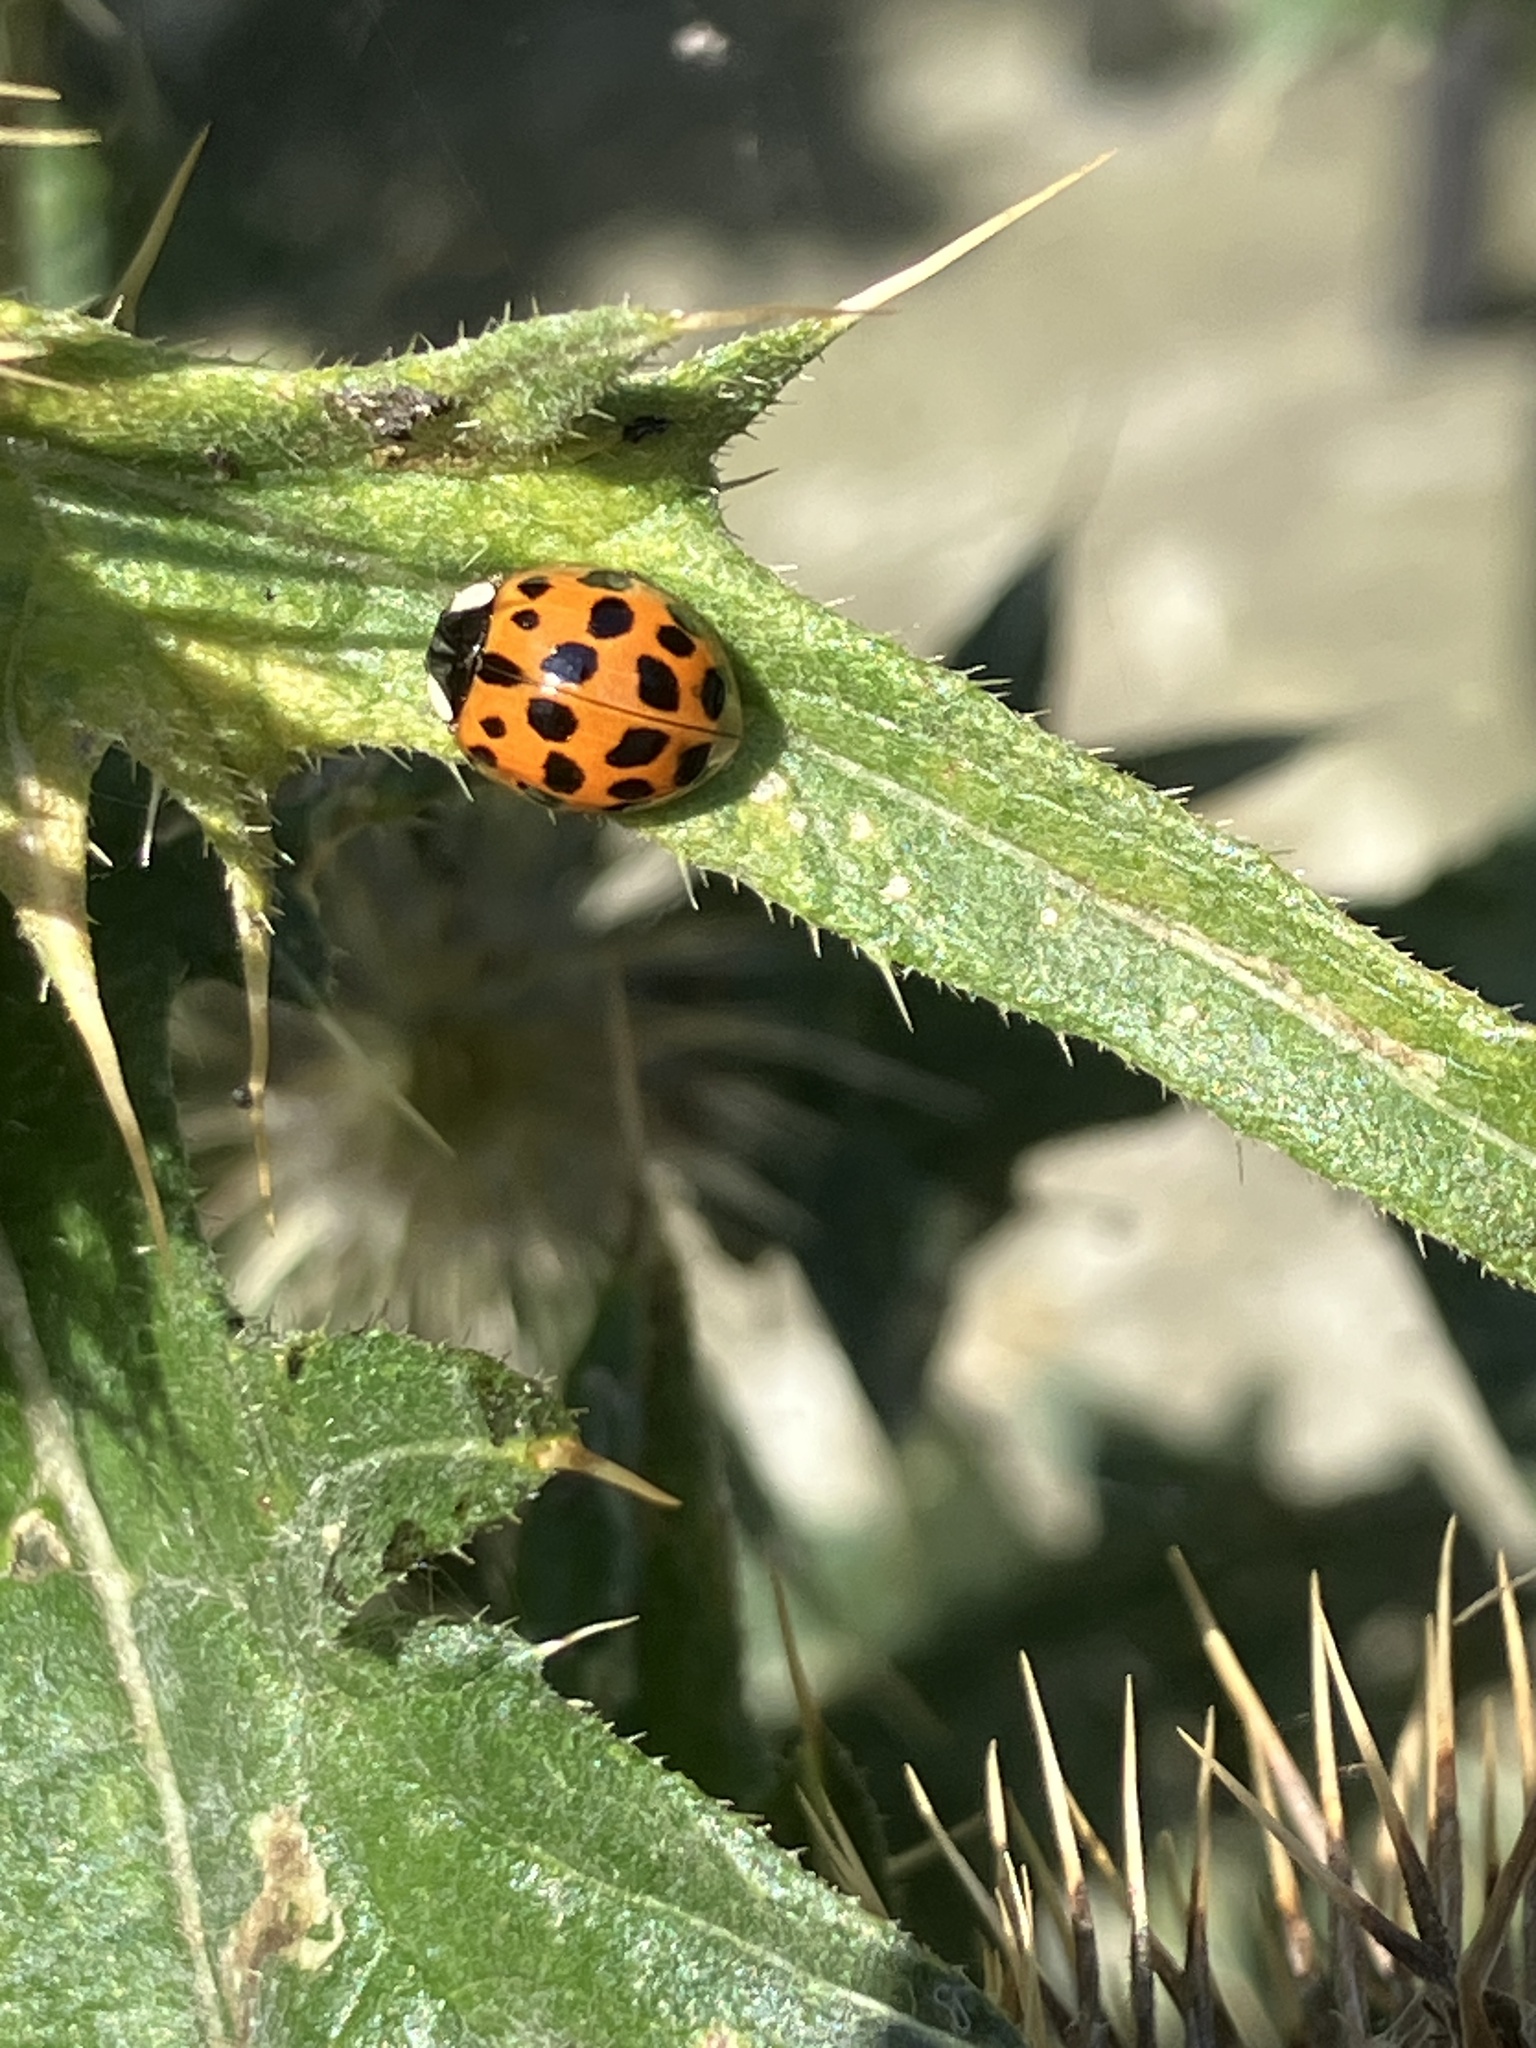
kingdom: Animalia
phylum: Arthropoda
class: Insecta
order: Coleoptera
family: Coccinellidae
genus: Harmonia
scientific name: Harmonia axyridis
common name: Harlequin ladybird
